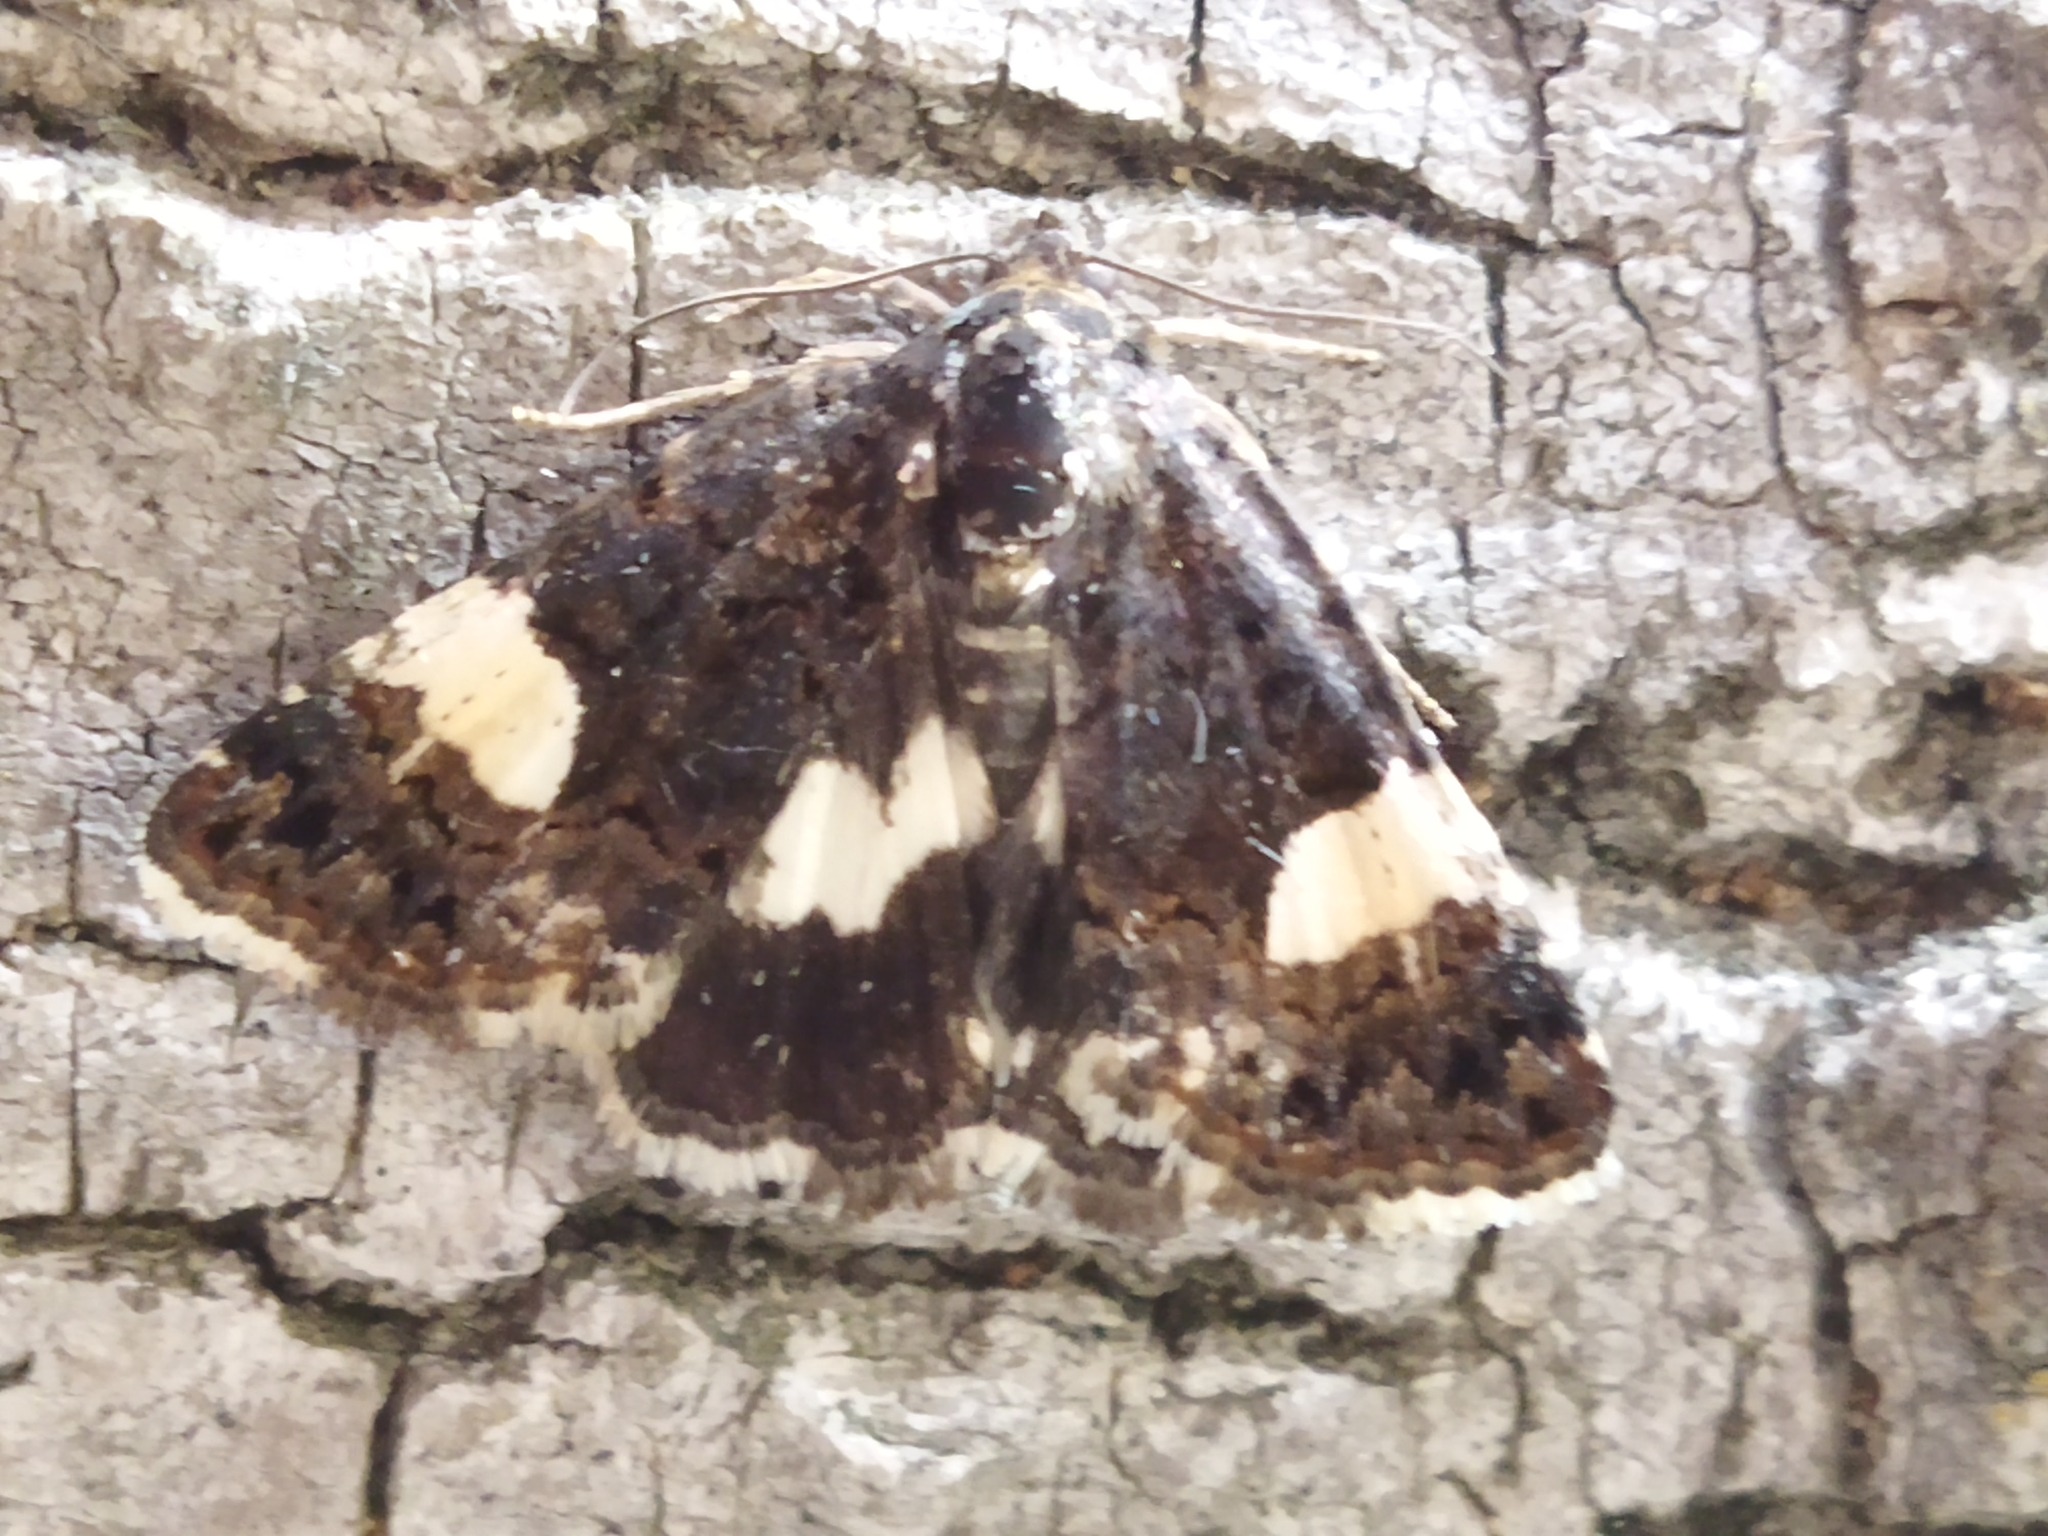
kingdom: Animalia
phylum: Arthropoda
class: Insecta
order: Lepidoptera
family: Erebidae
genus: Tyta
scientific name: Tyta luctuosa
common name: Four-spotted
